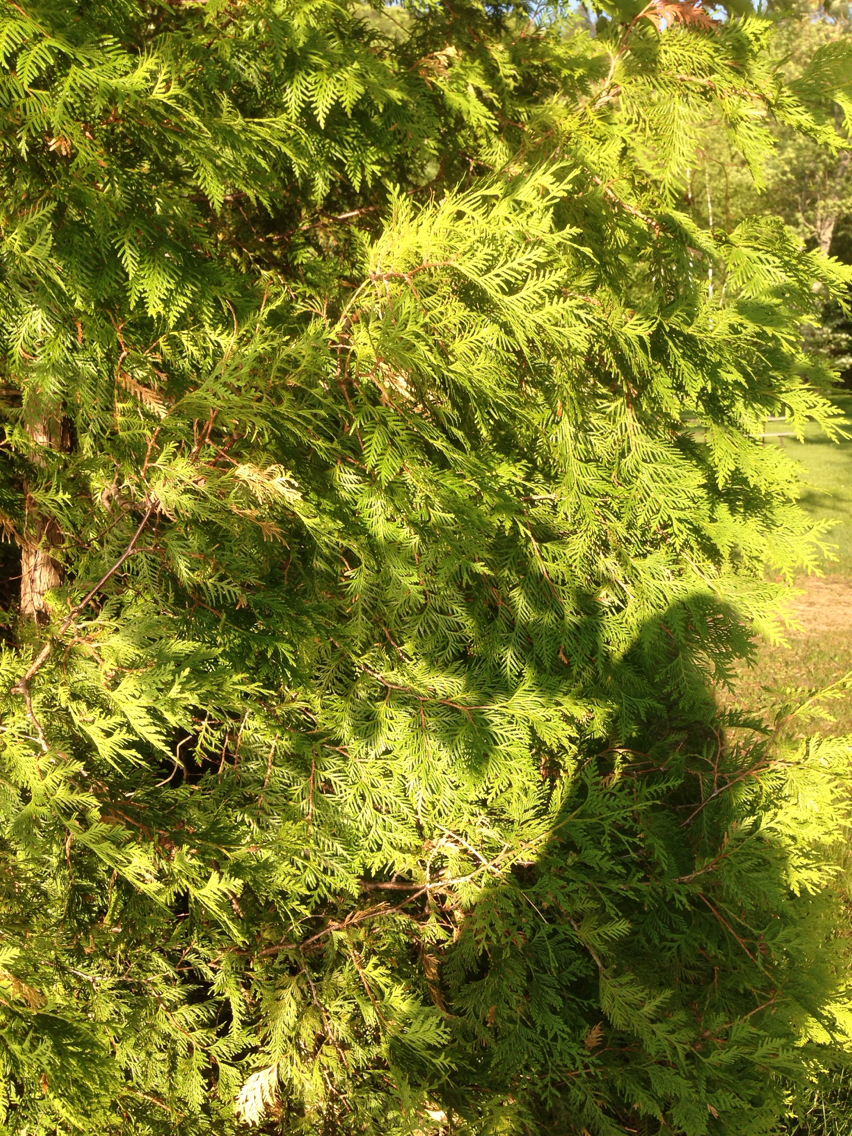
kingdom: Plantae
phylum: Tracheophyta
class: Pinopsida
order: Pinales
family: Cupressaceae
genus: Thuja
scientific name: Thuja occidentalis
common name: Northern white-cedar
